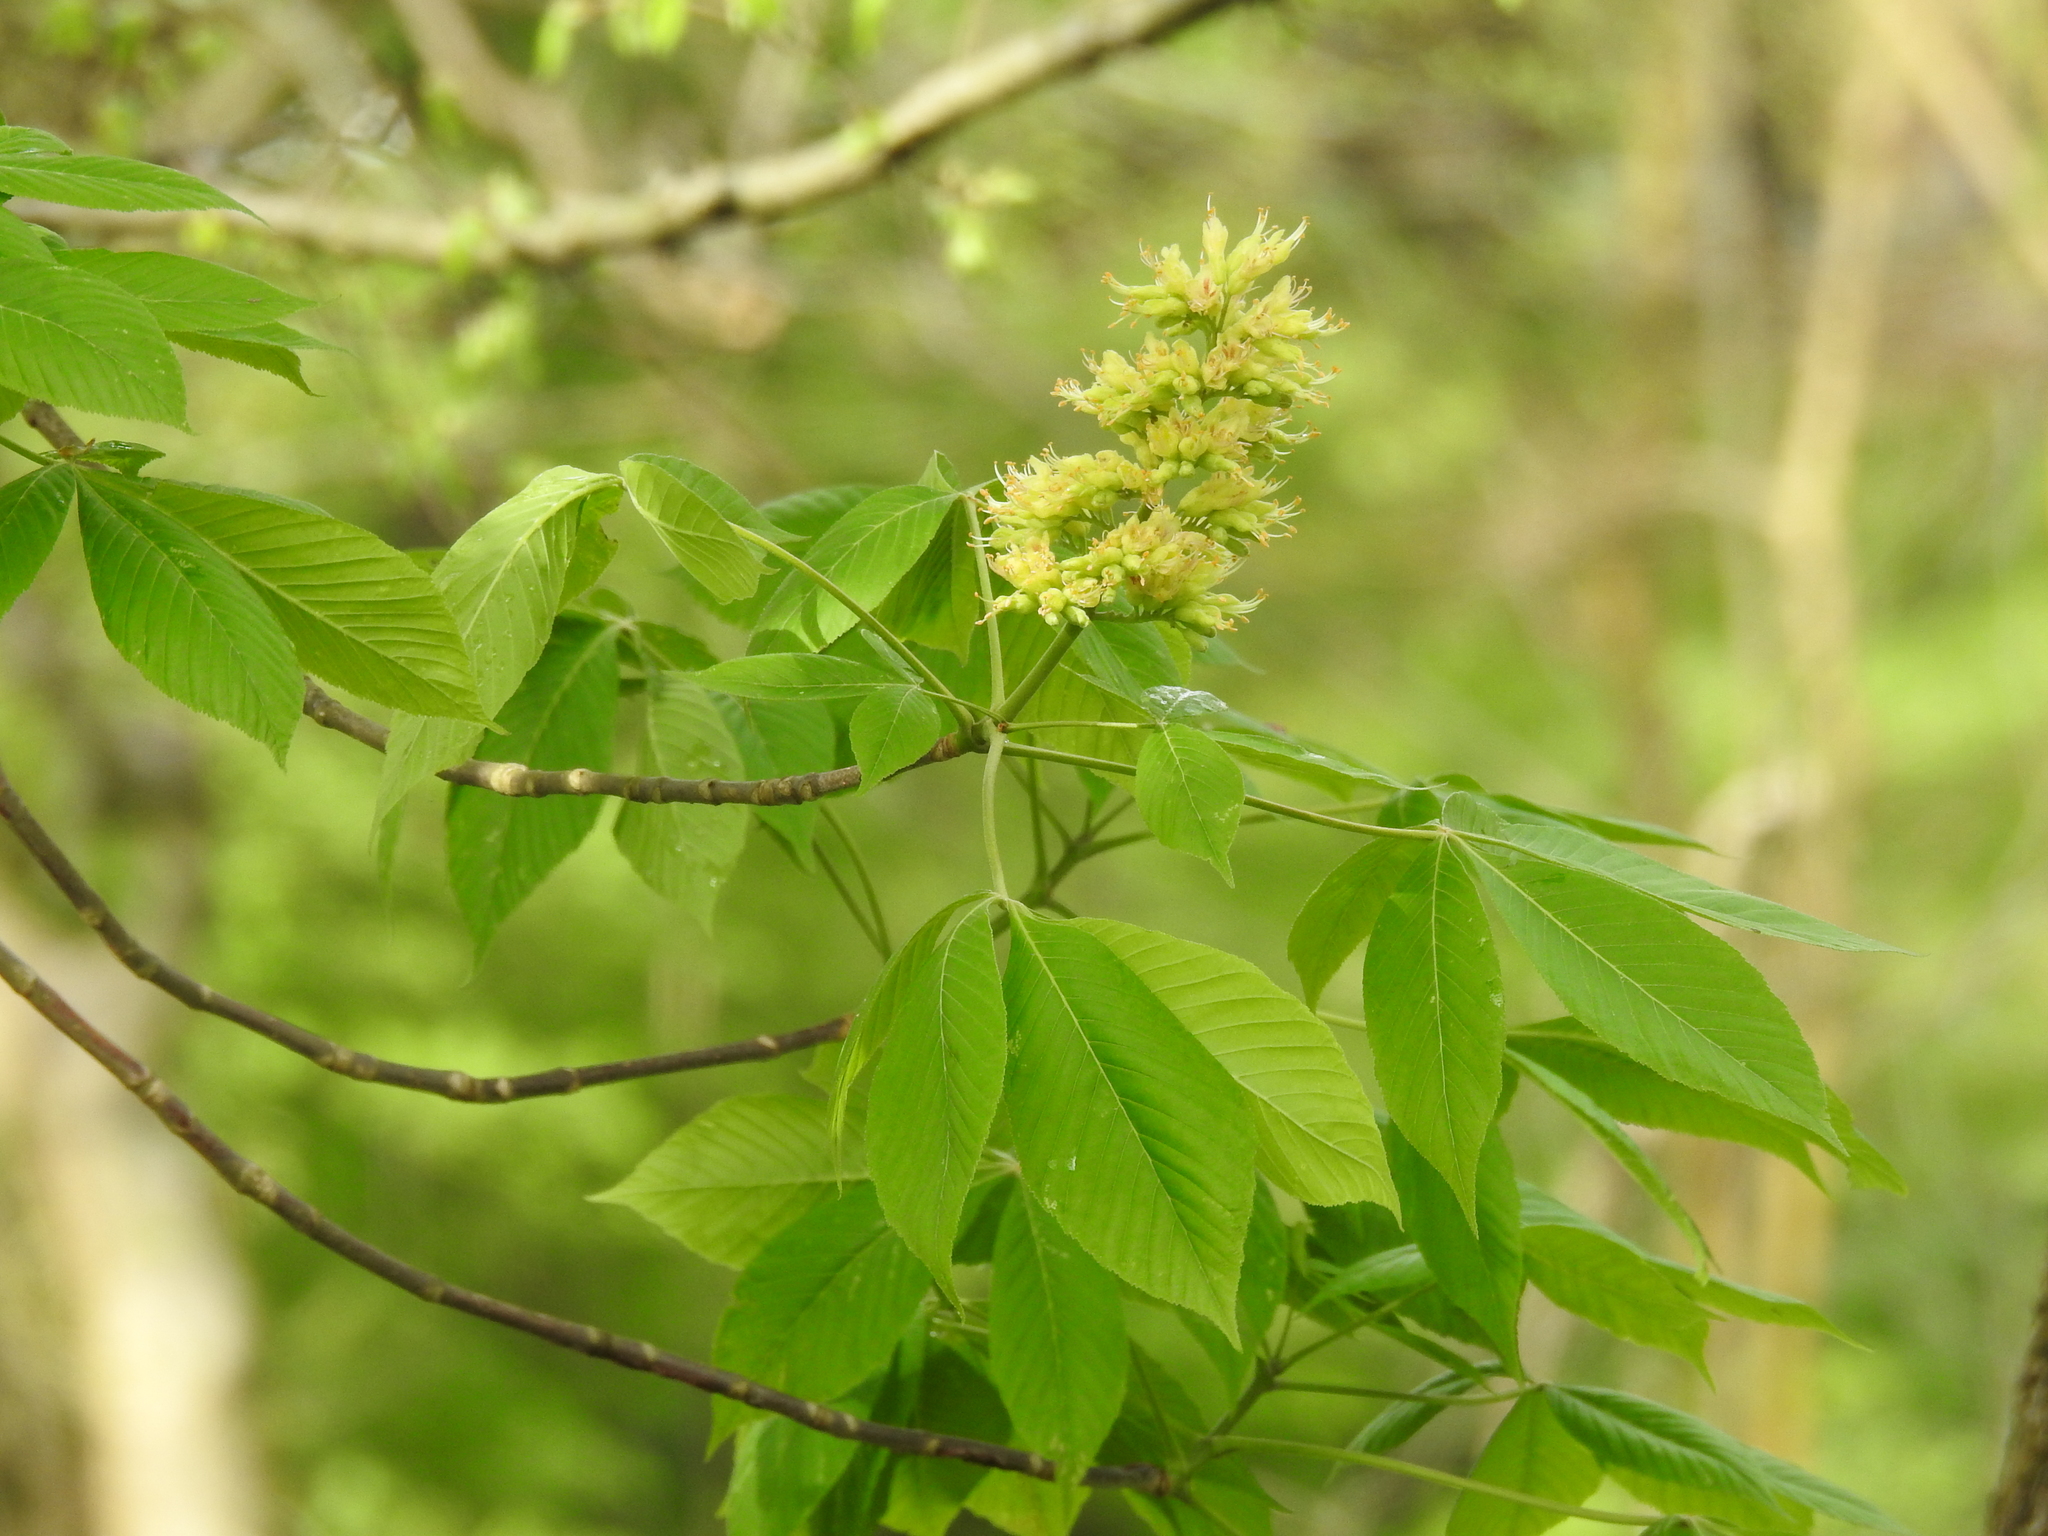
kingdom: Plantae
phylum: Tracheophyta
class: Magnoliopsida
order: Sapindales
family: Sapindaceae
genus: Aesculus
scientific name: Aesculus glabra
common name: Ohio buckeye
